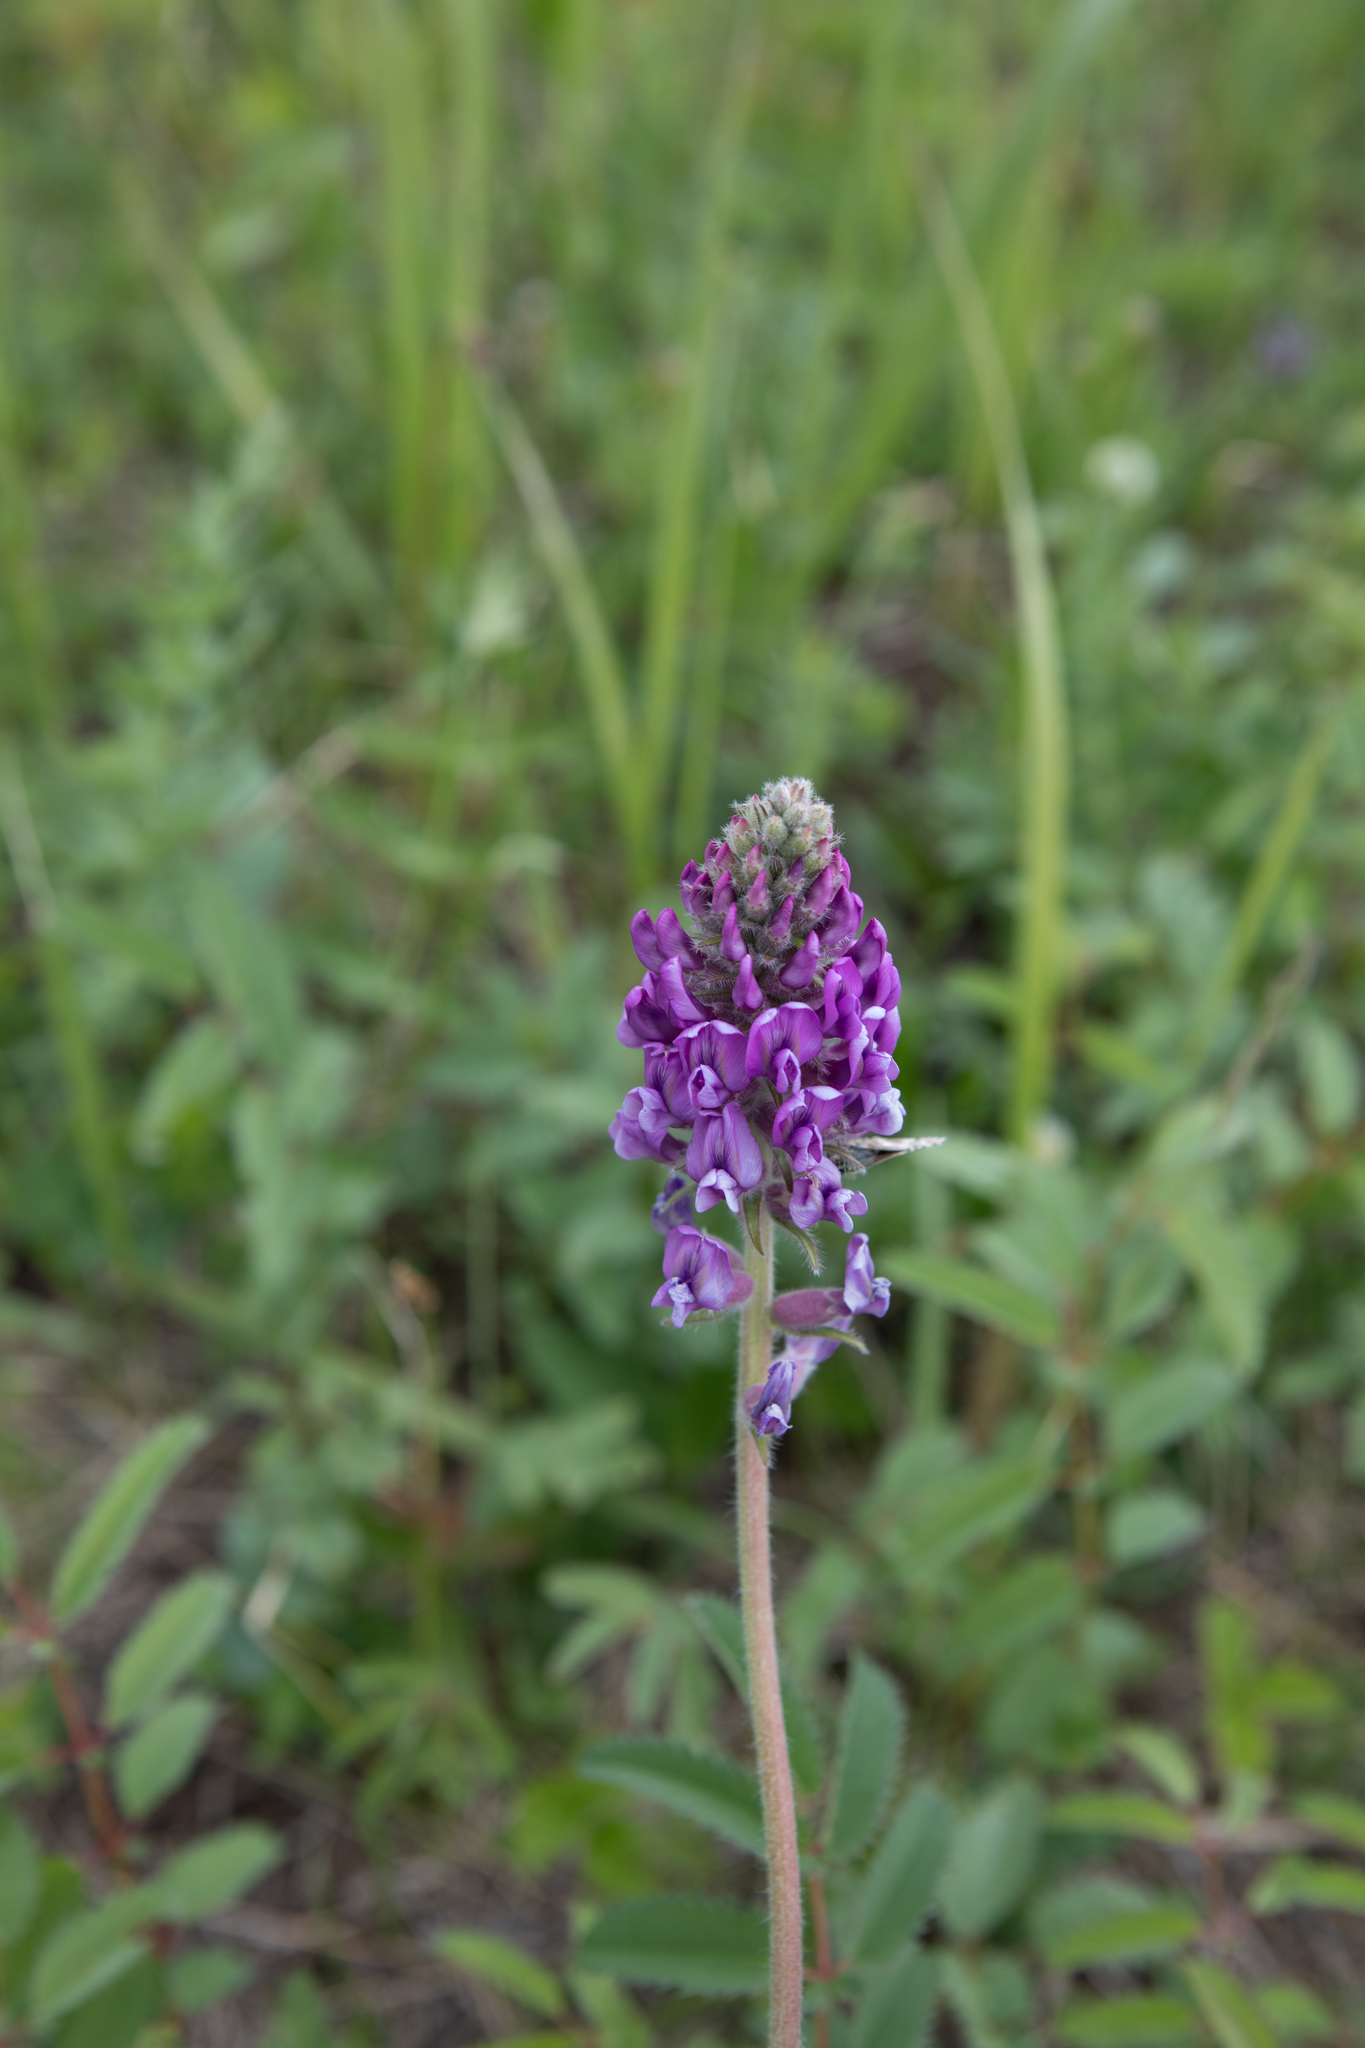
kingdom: Plantae
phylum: Tracheophyta
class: Magnoliopsida
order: Fabales
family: Fabaceae
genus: Oxytropis
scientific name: Oxytropis campanulata
